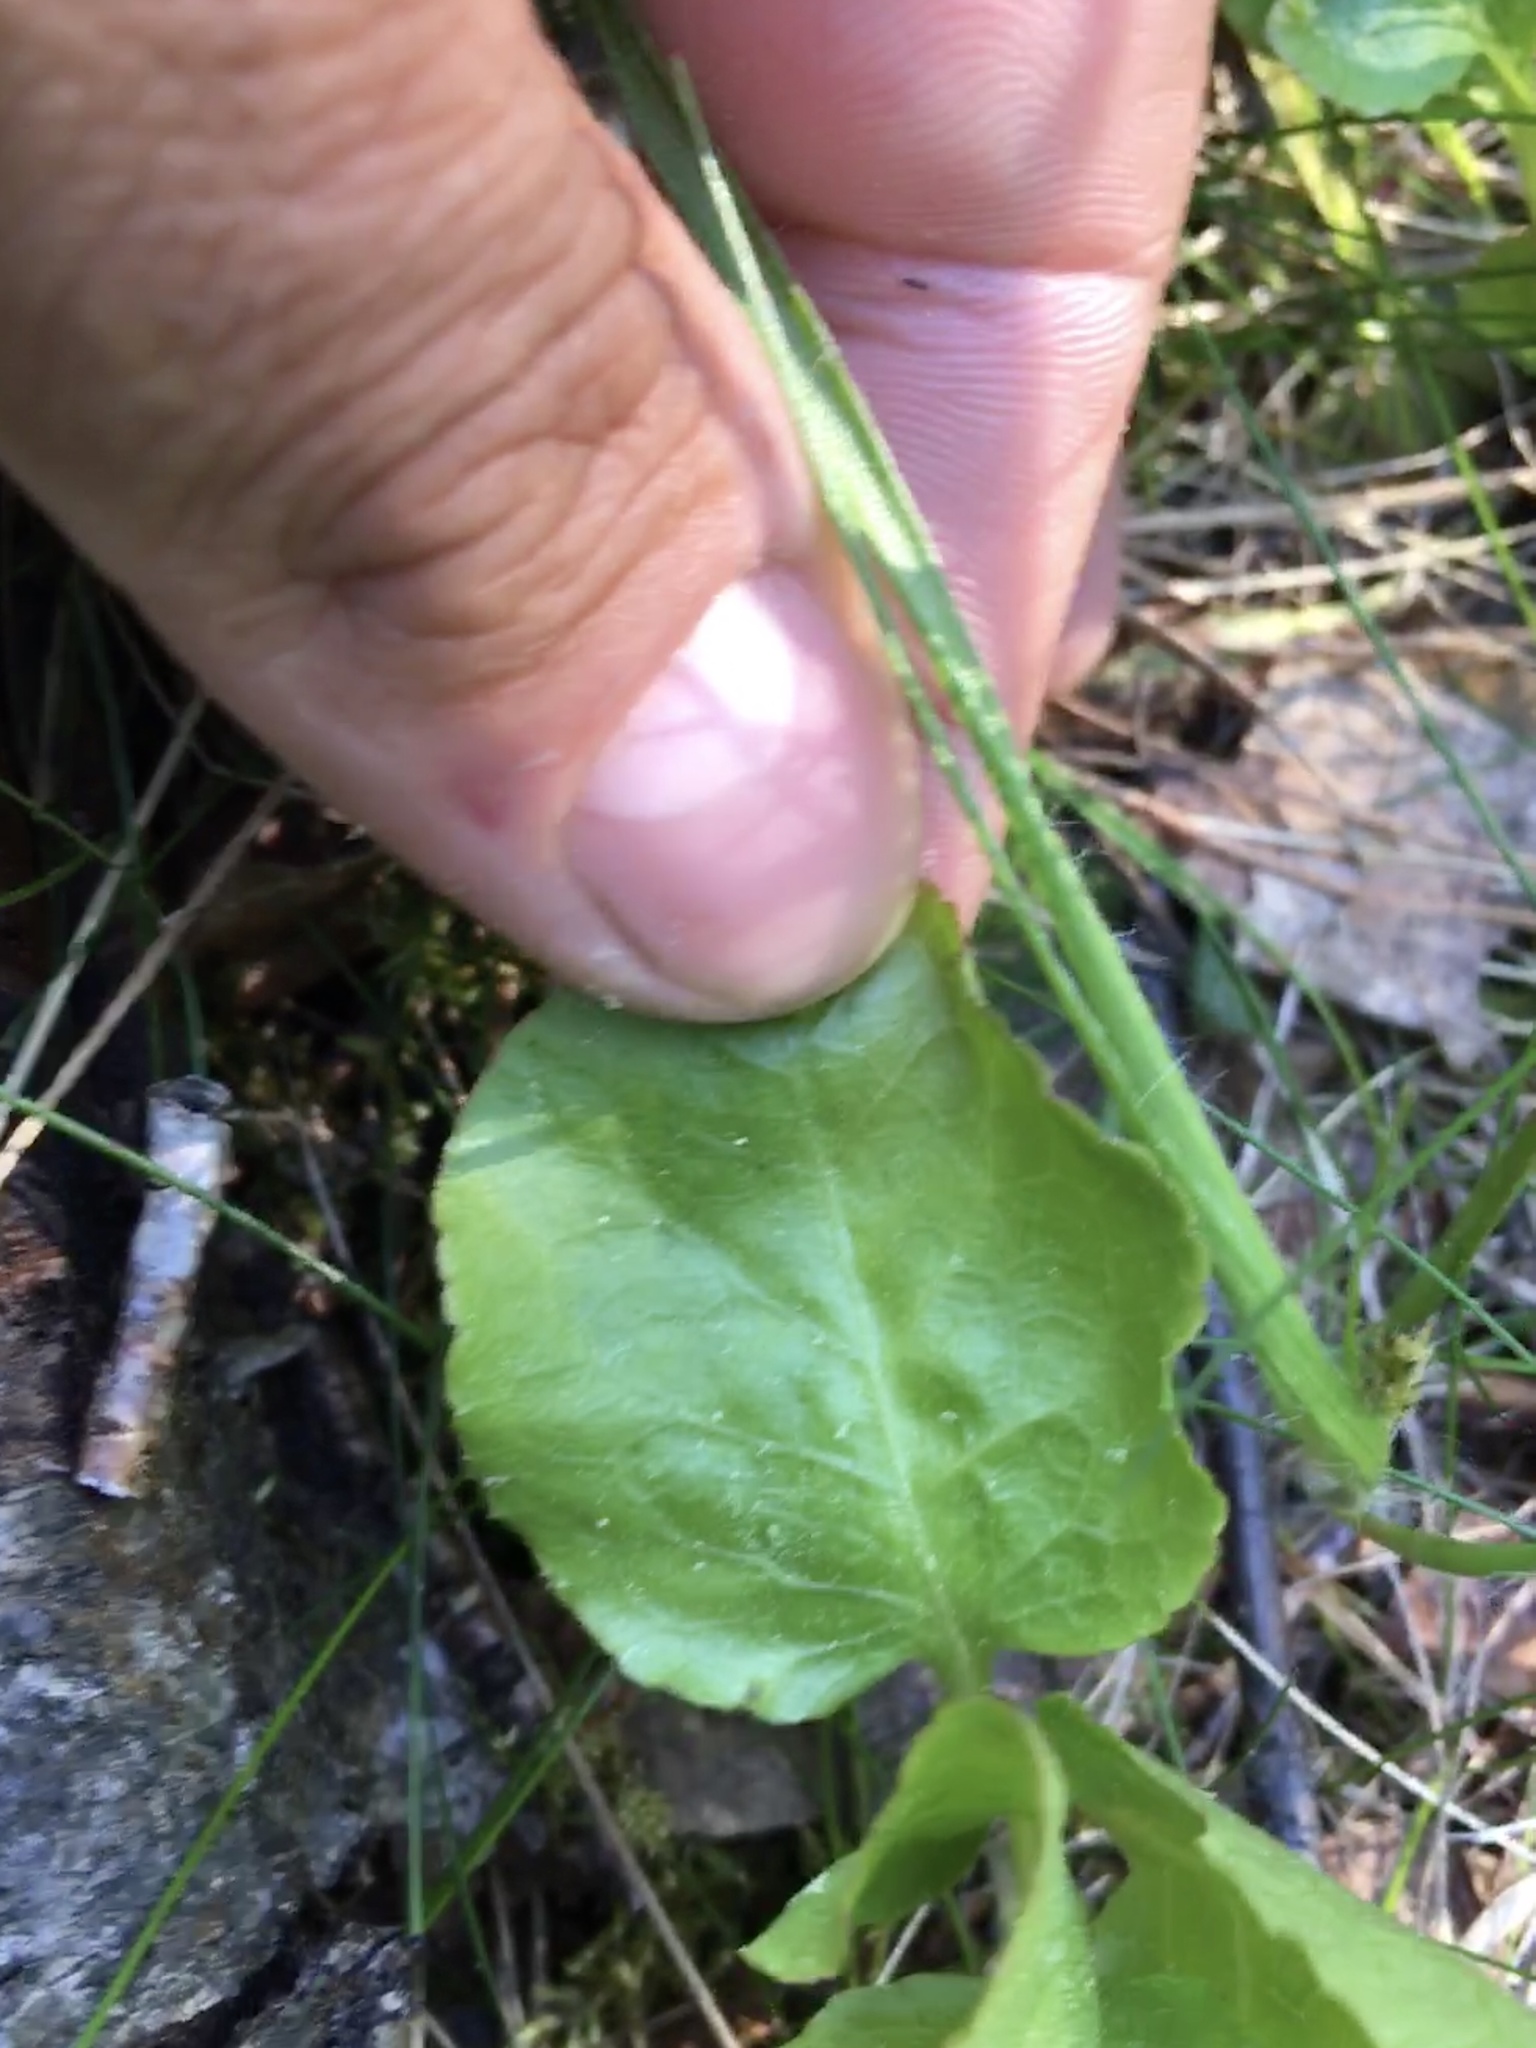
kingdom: Plantae
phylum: Tracheophyta
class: Magnoliopsida
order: Ericales
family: Ericaceae
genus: Pyrola
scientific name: Pyrola minor
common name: Common wintergreen
